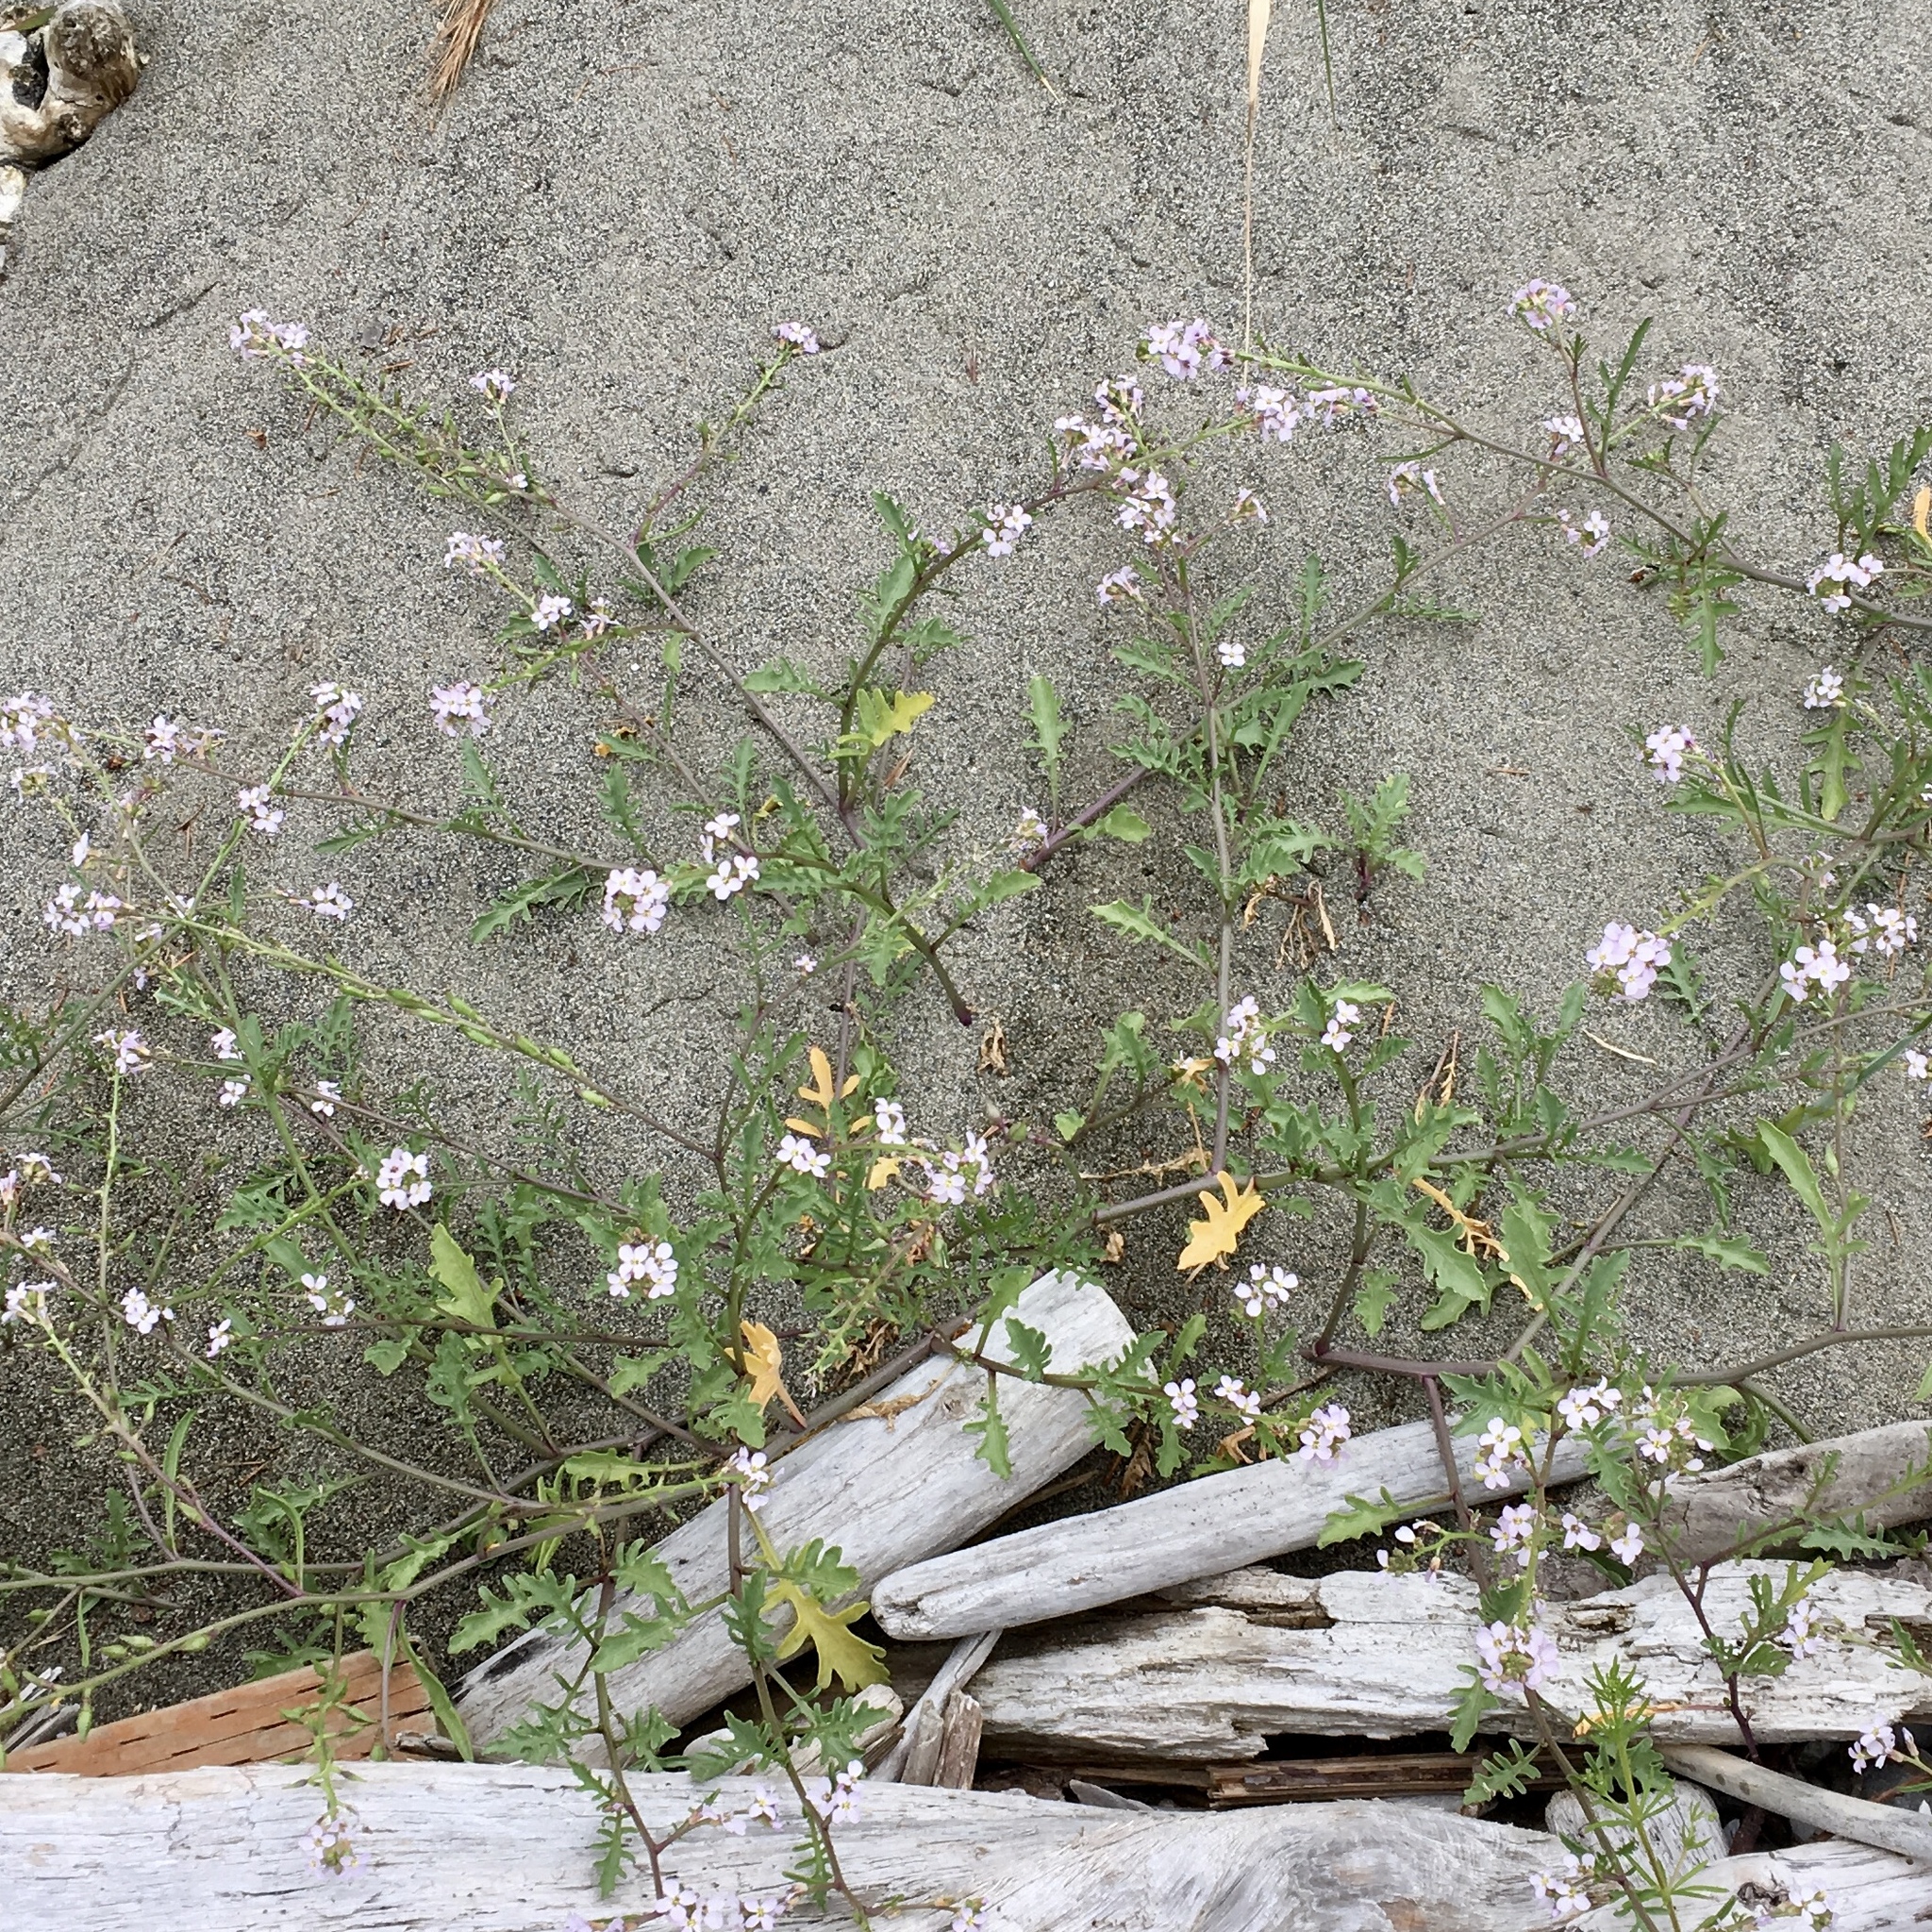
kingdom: Plantae
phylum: Tracheophyta
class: Magnoliopsida
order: Brassicales
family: Brassicaceae
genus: Cakile
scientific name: Cakile maritima
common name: Sea rocket
